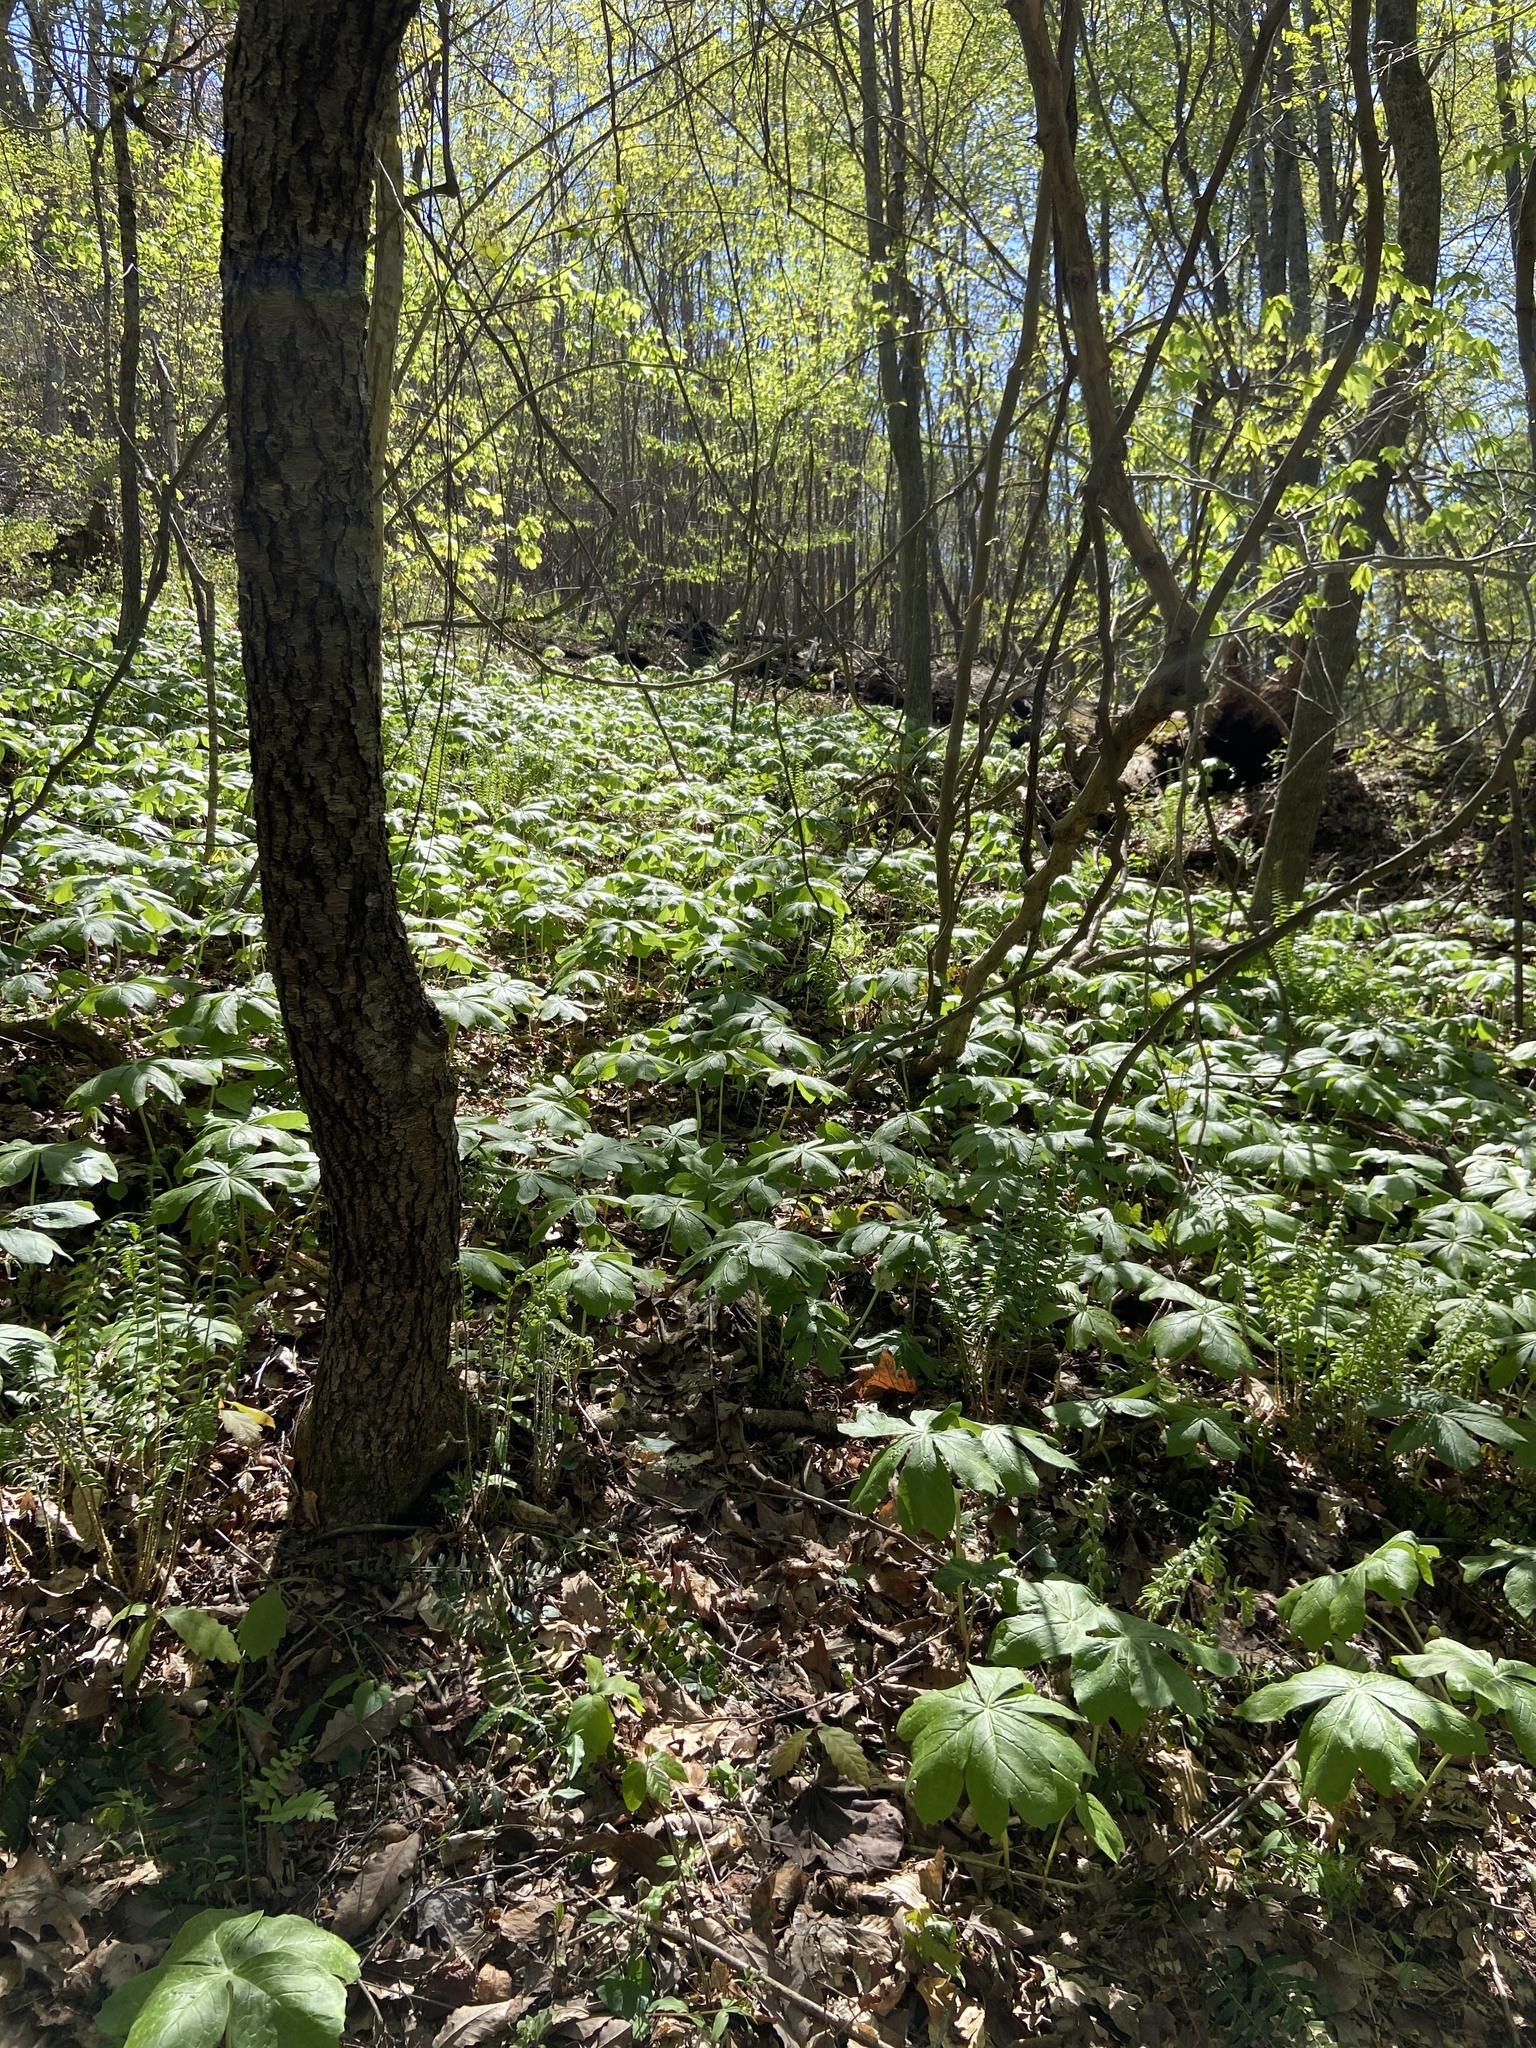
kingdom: Plantae
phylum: Tracheophyta
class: Magnoliopsida
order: Ranunculales
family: Berberidaceae
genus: Podophyllum
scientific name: Podophyllum peltatum
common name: Wild mandrake
